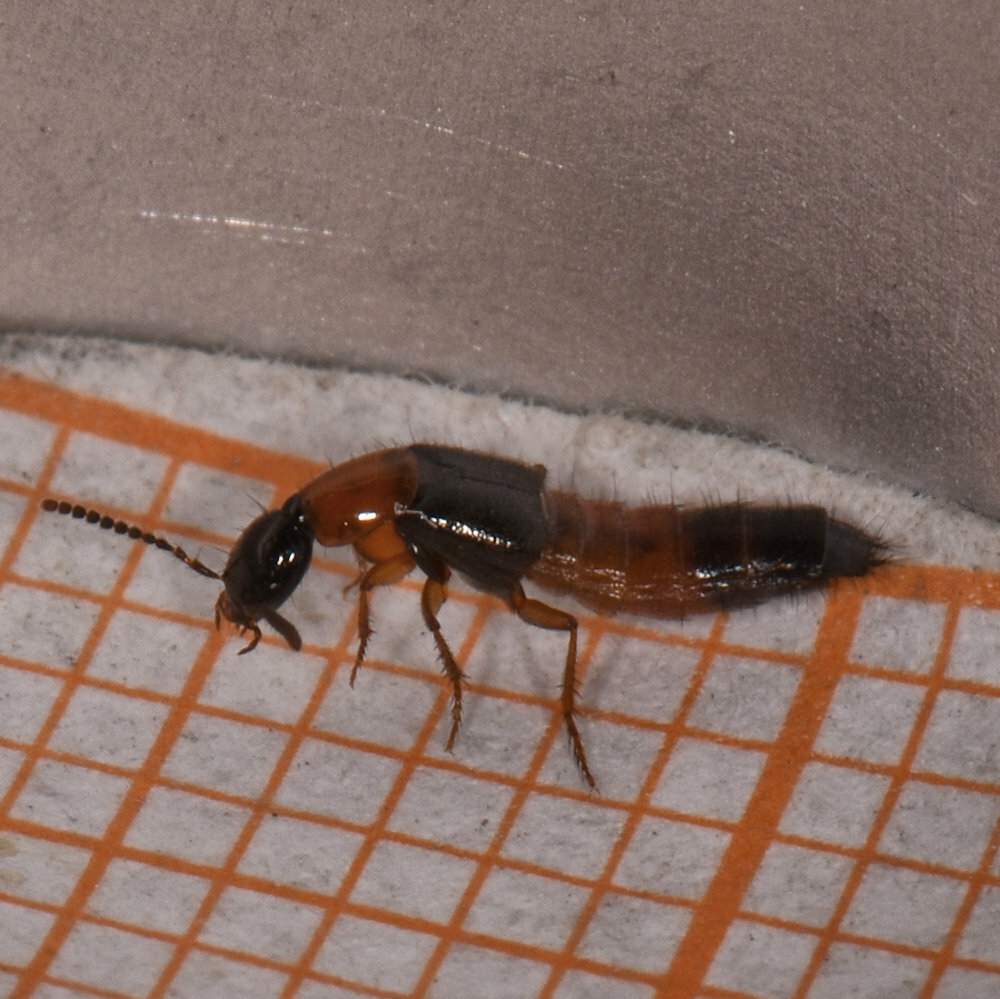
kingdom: Animalia
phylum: Arthropoda
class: Insecta
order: Coleoptera
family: Staphylinidae
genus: Bisnius
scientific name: Bisnius blandus
